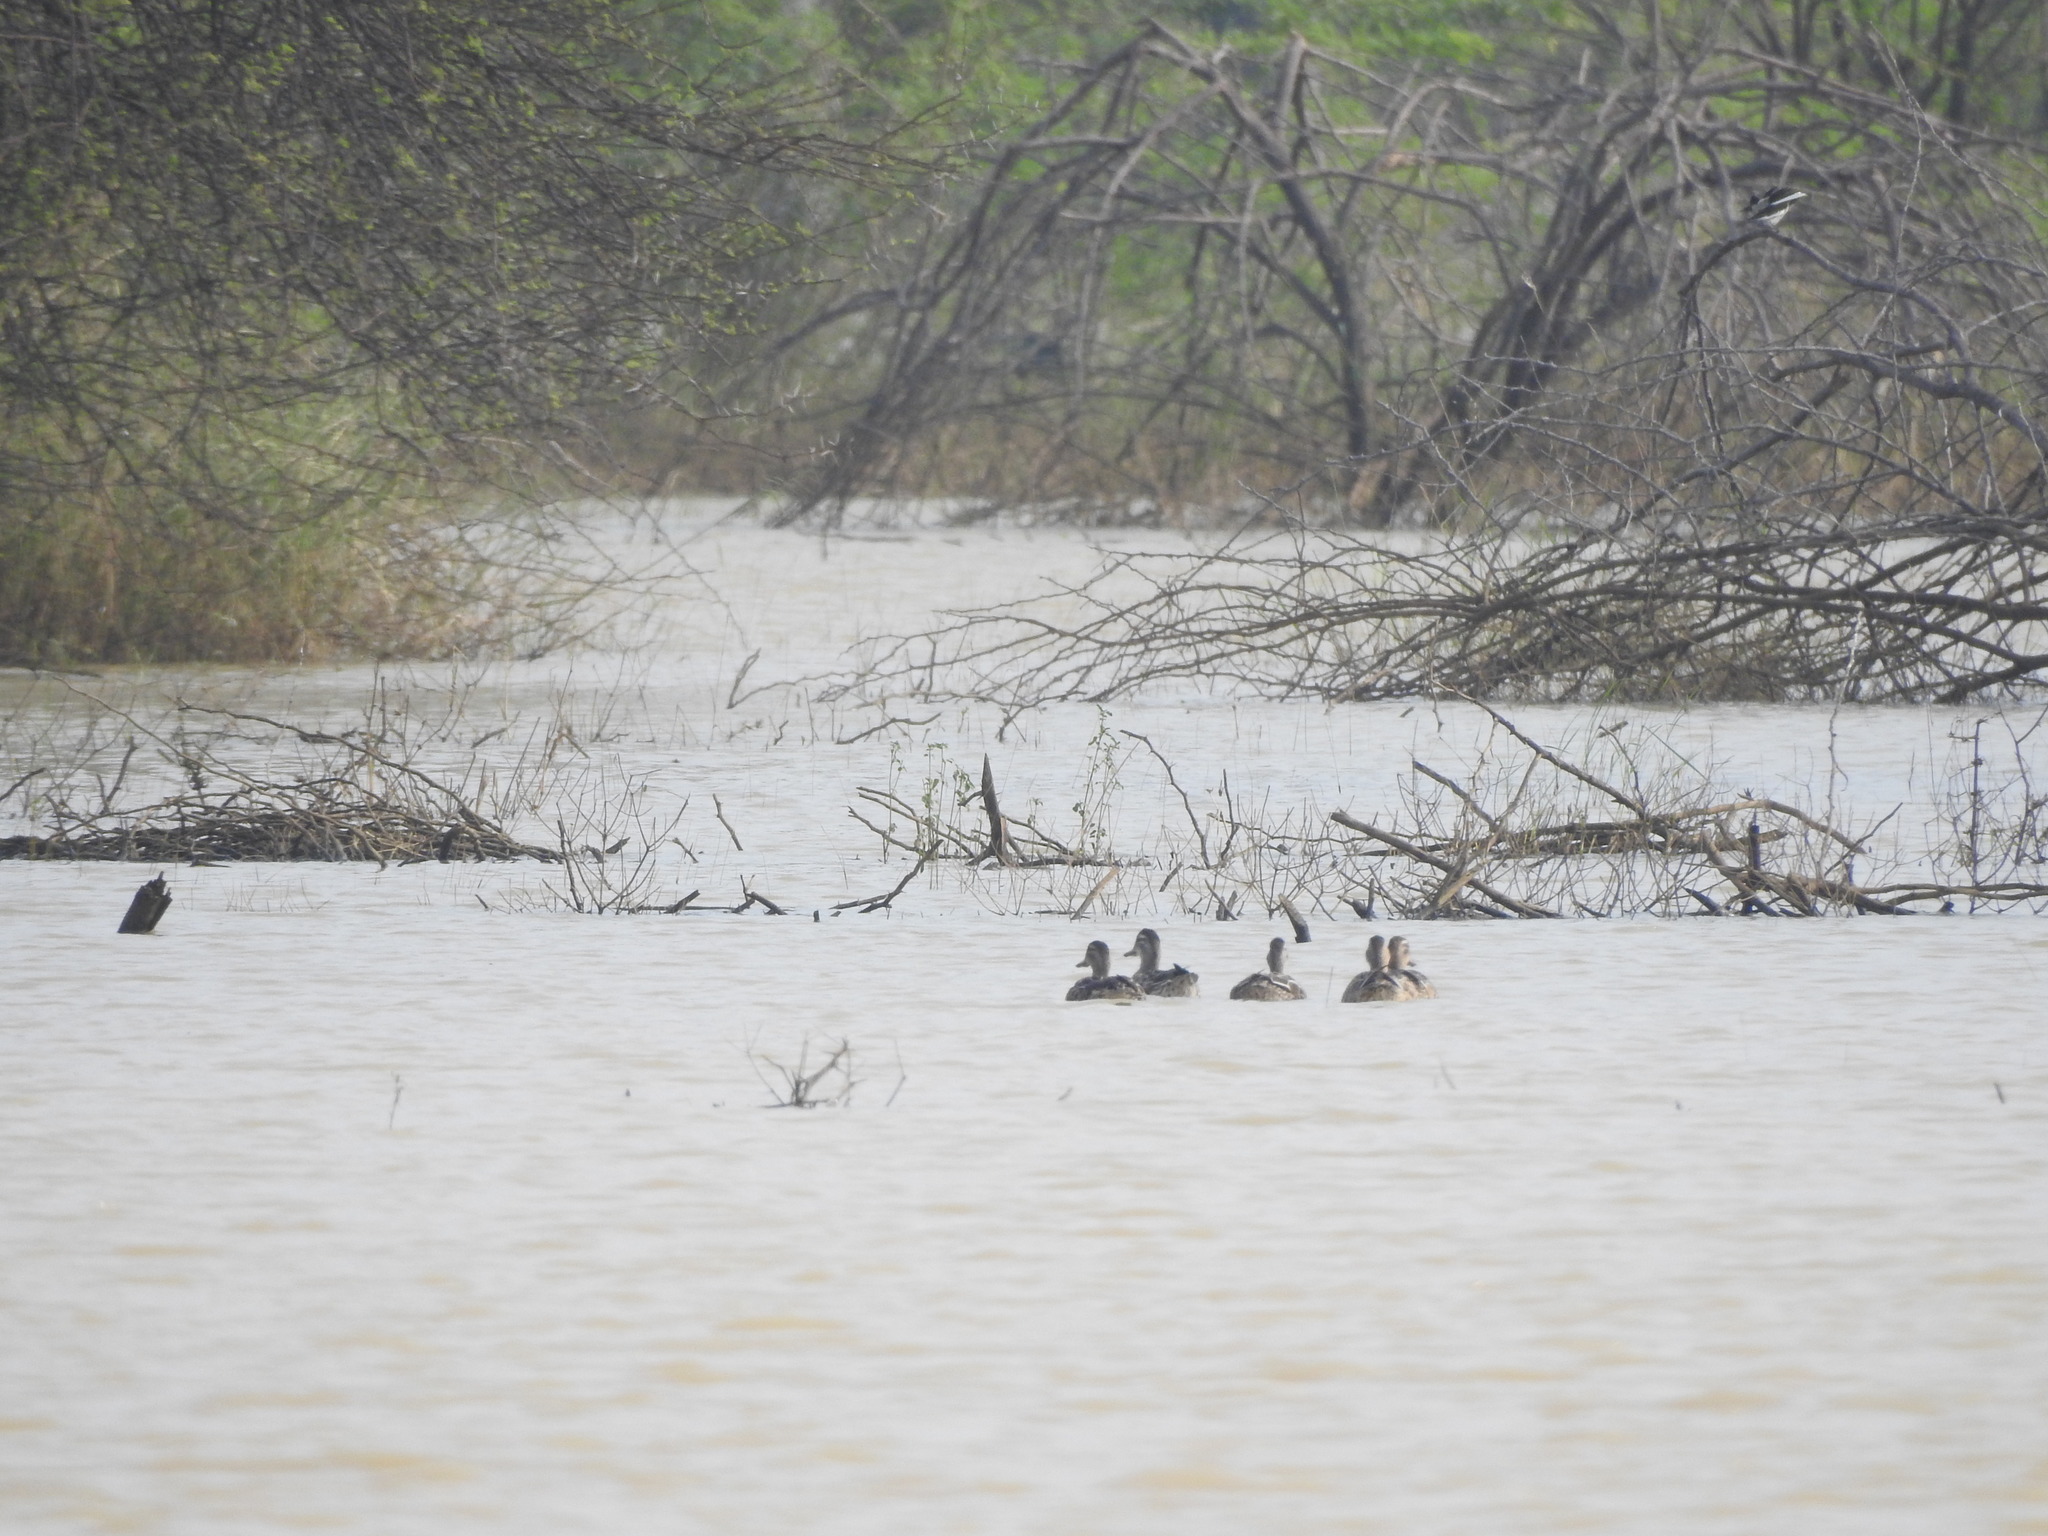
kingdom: Animalia
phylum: Chordata
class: Aves
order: Anseriformes
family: Anatidae
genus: Spatula
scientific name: Spatula querquedula
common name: Garganey
